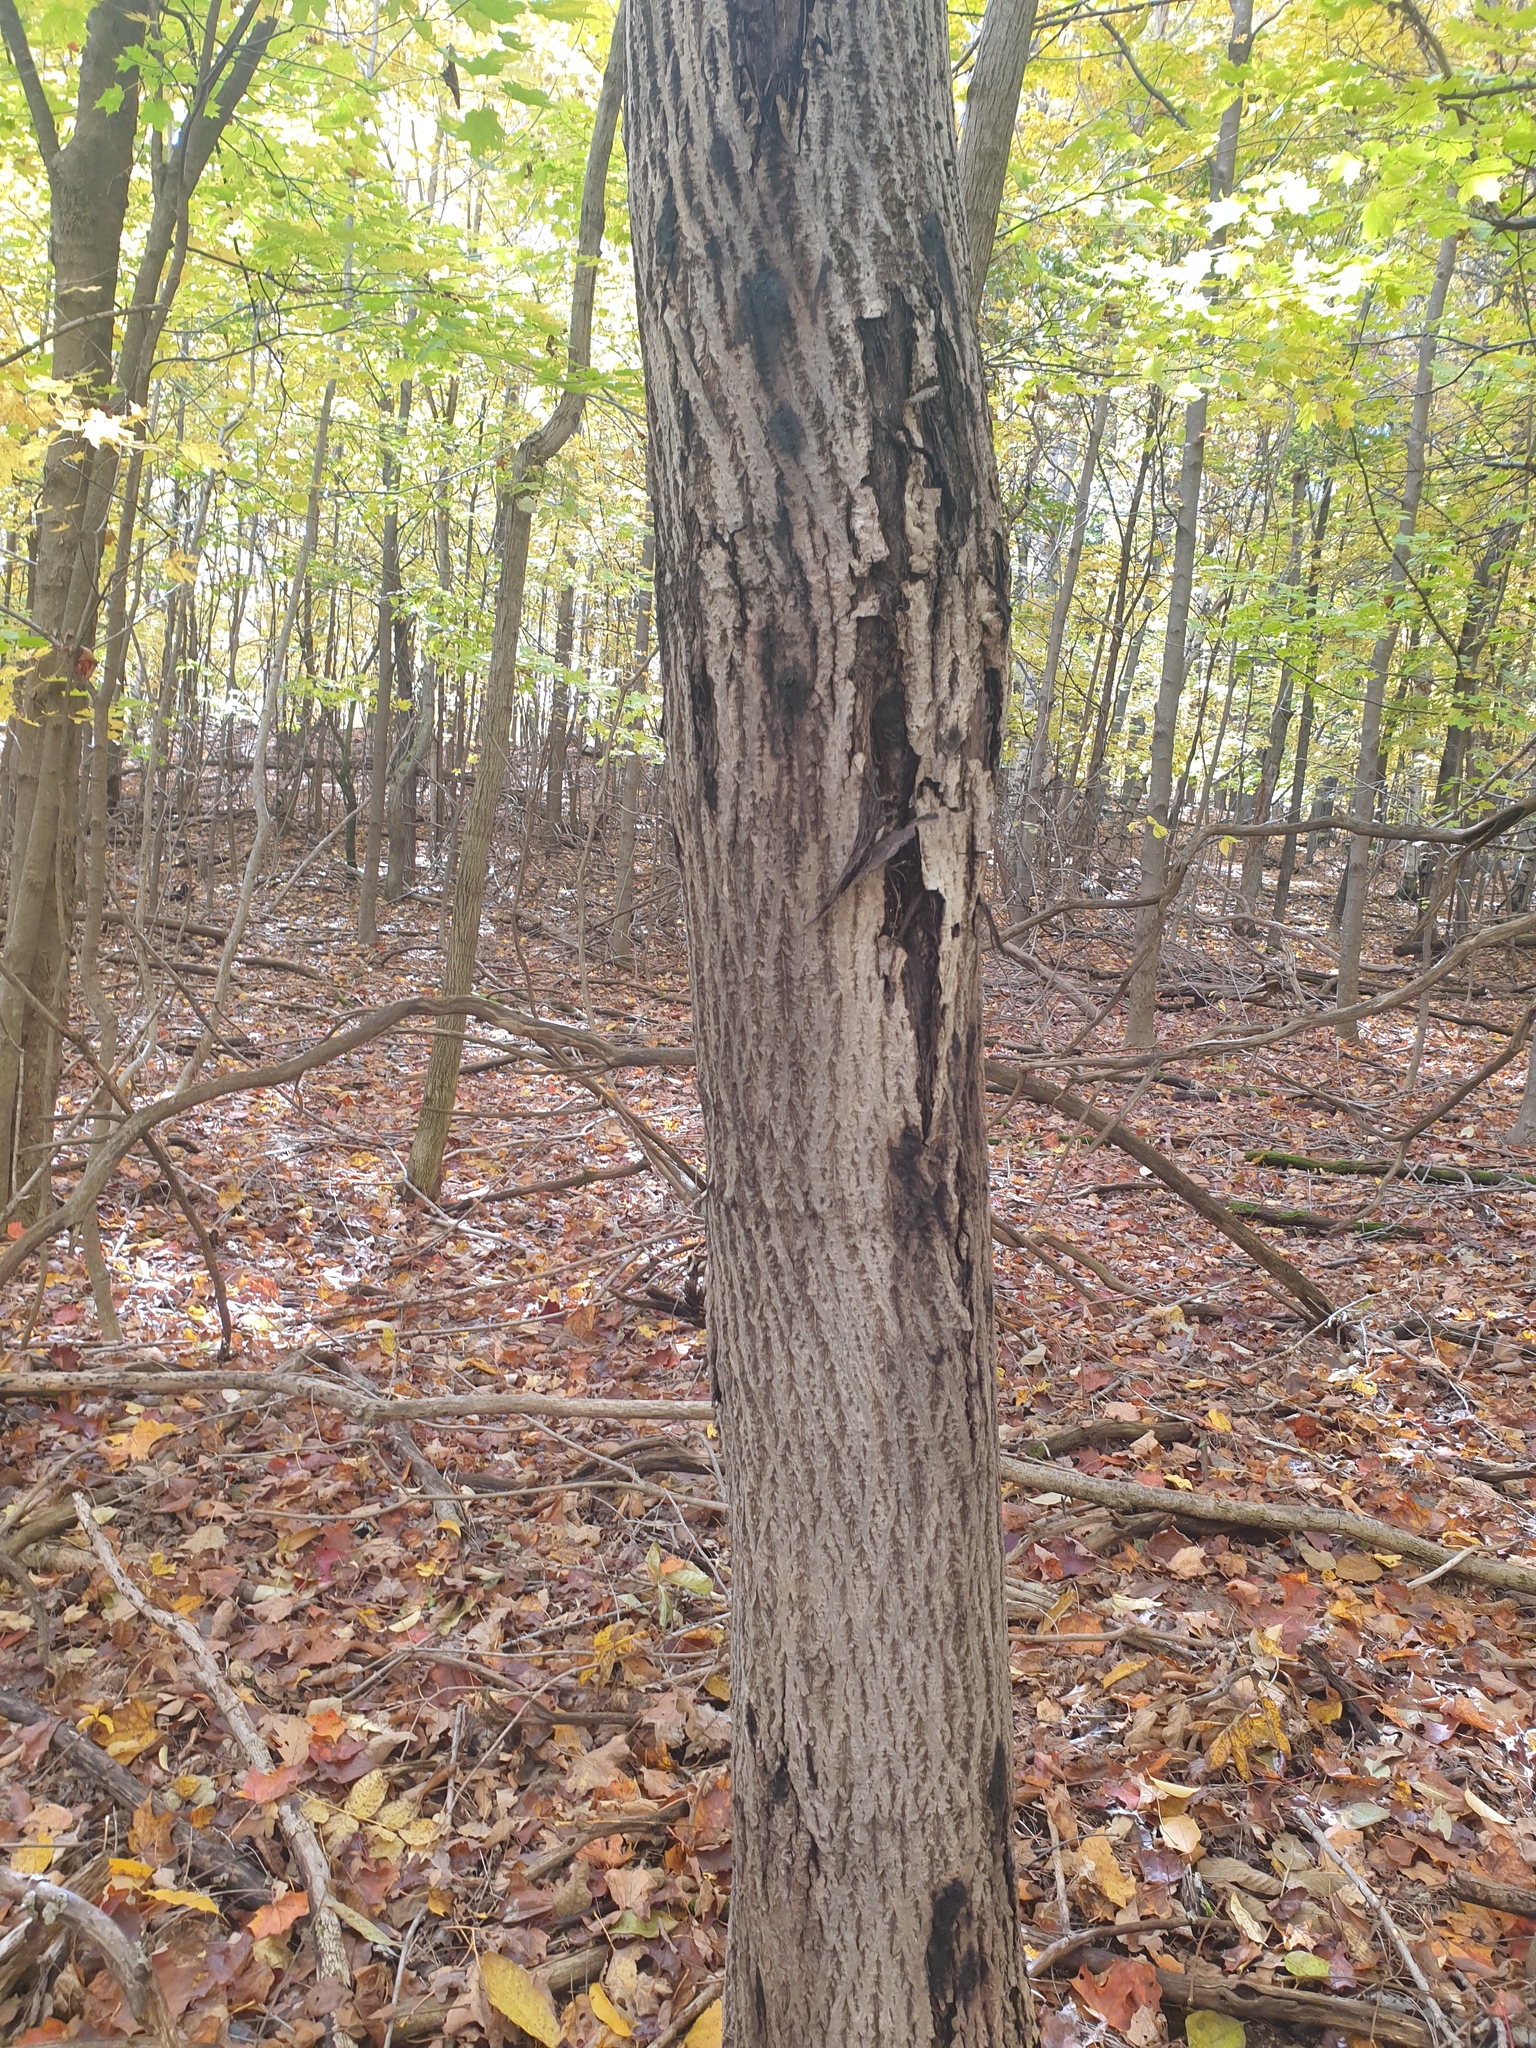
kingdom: Plantae
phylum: Tracheophyta
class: Magnoliopsida
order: Fagales
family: Juglandaceae
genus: Juglans
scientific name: Juglans cinerea
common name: Butternut
